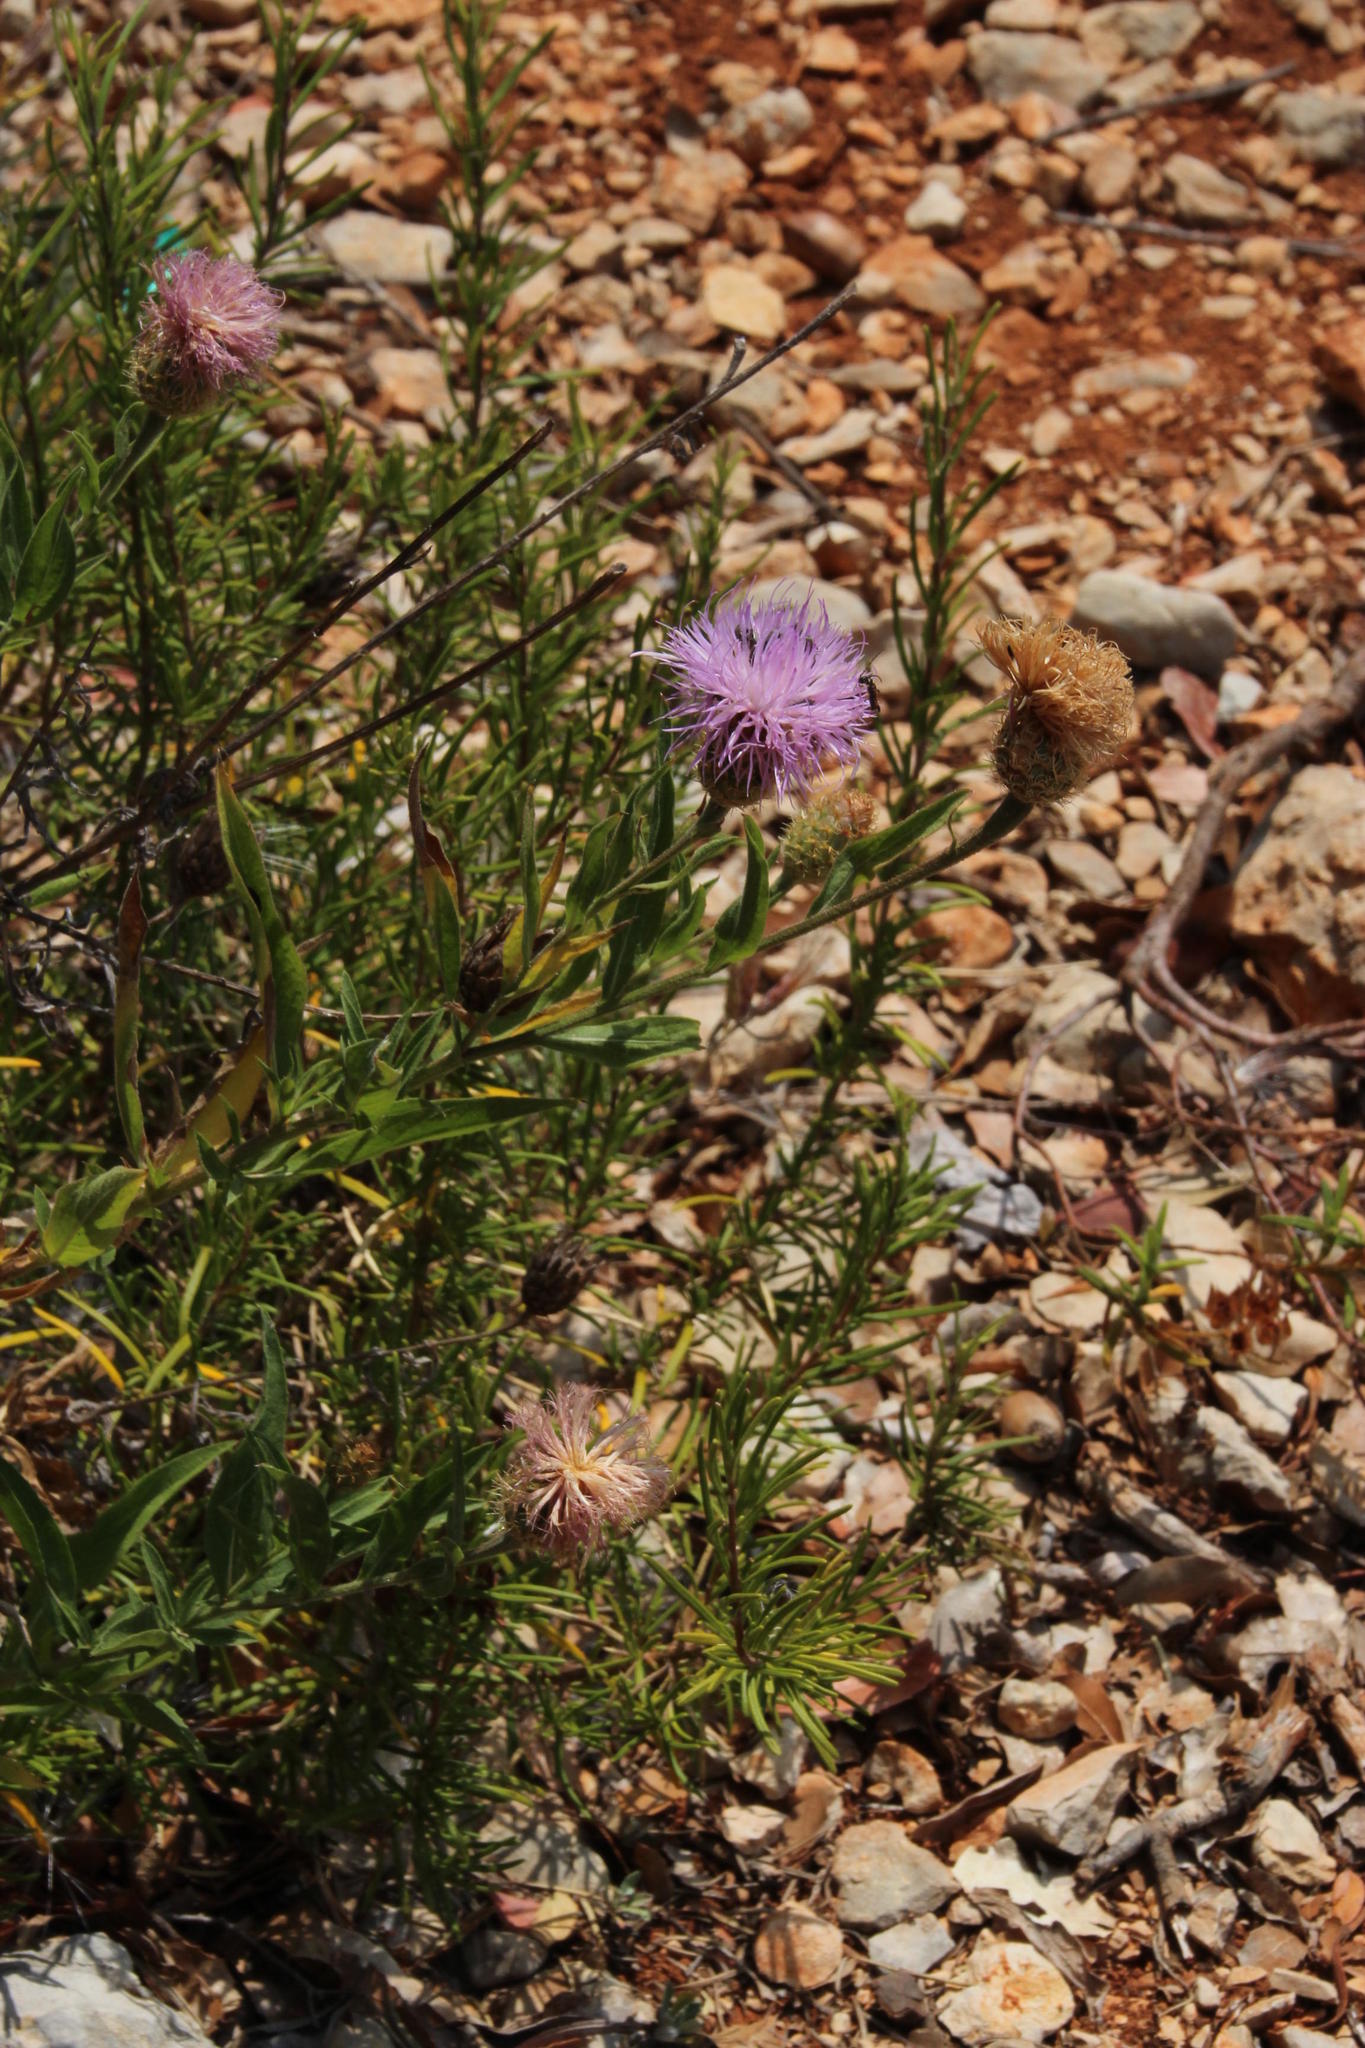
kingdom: Plantae
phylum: Tracheophyta
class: Magnoliopsida
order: Asterales
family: Asteraceae
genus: Cheirolophus
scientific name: Cheirolophus sempervirens
